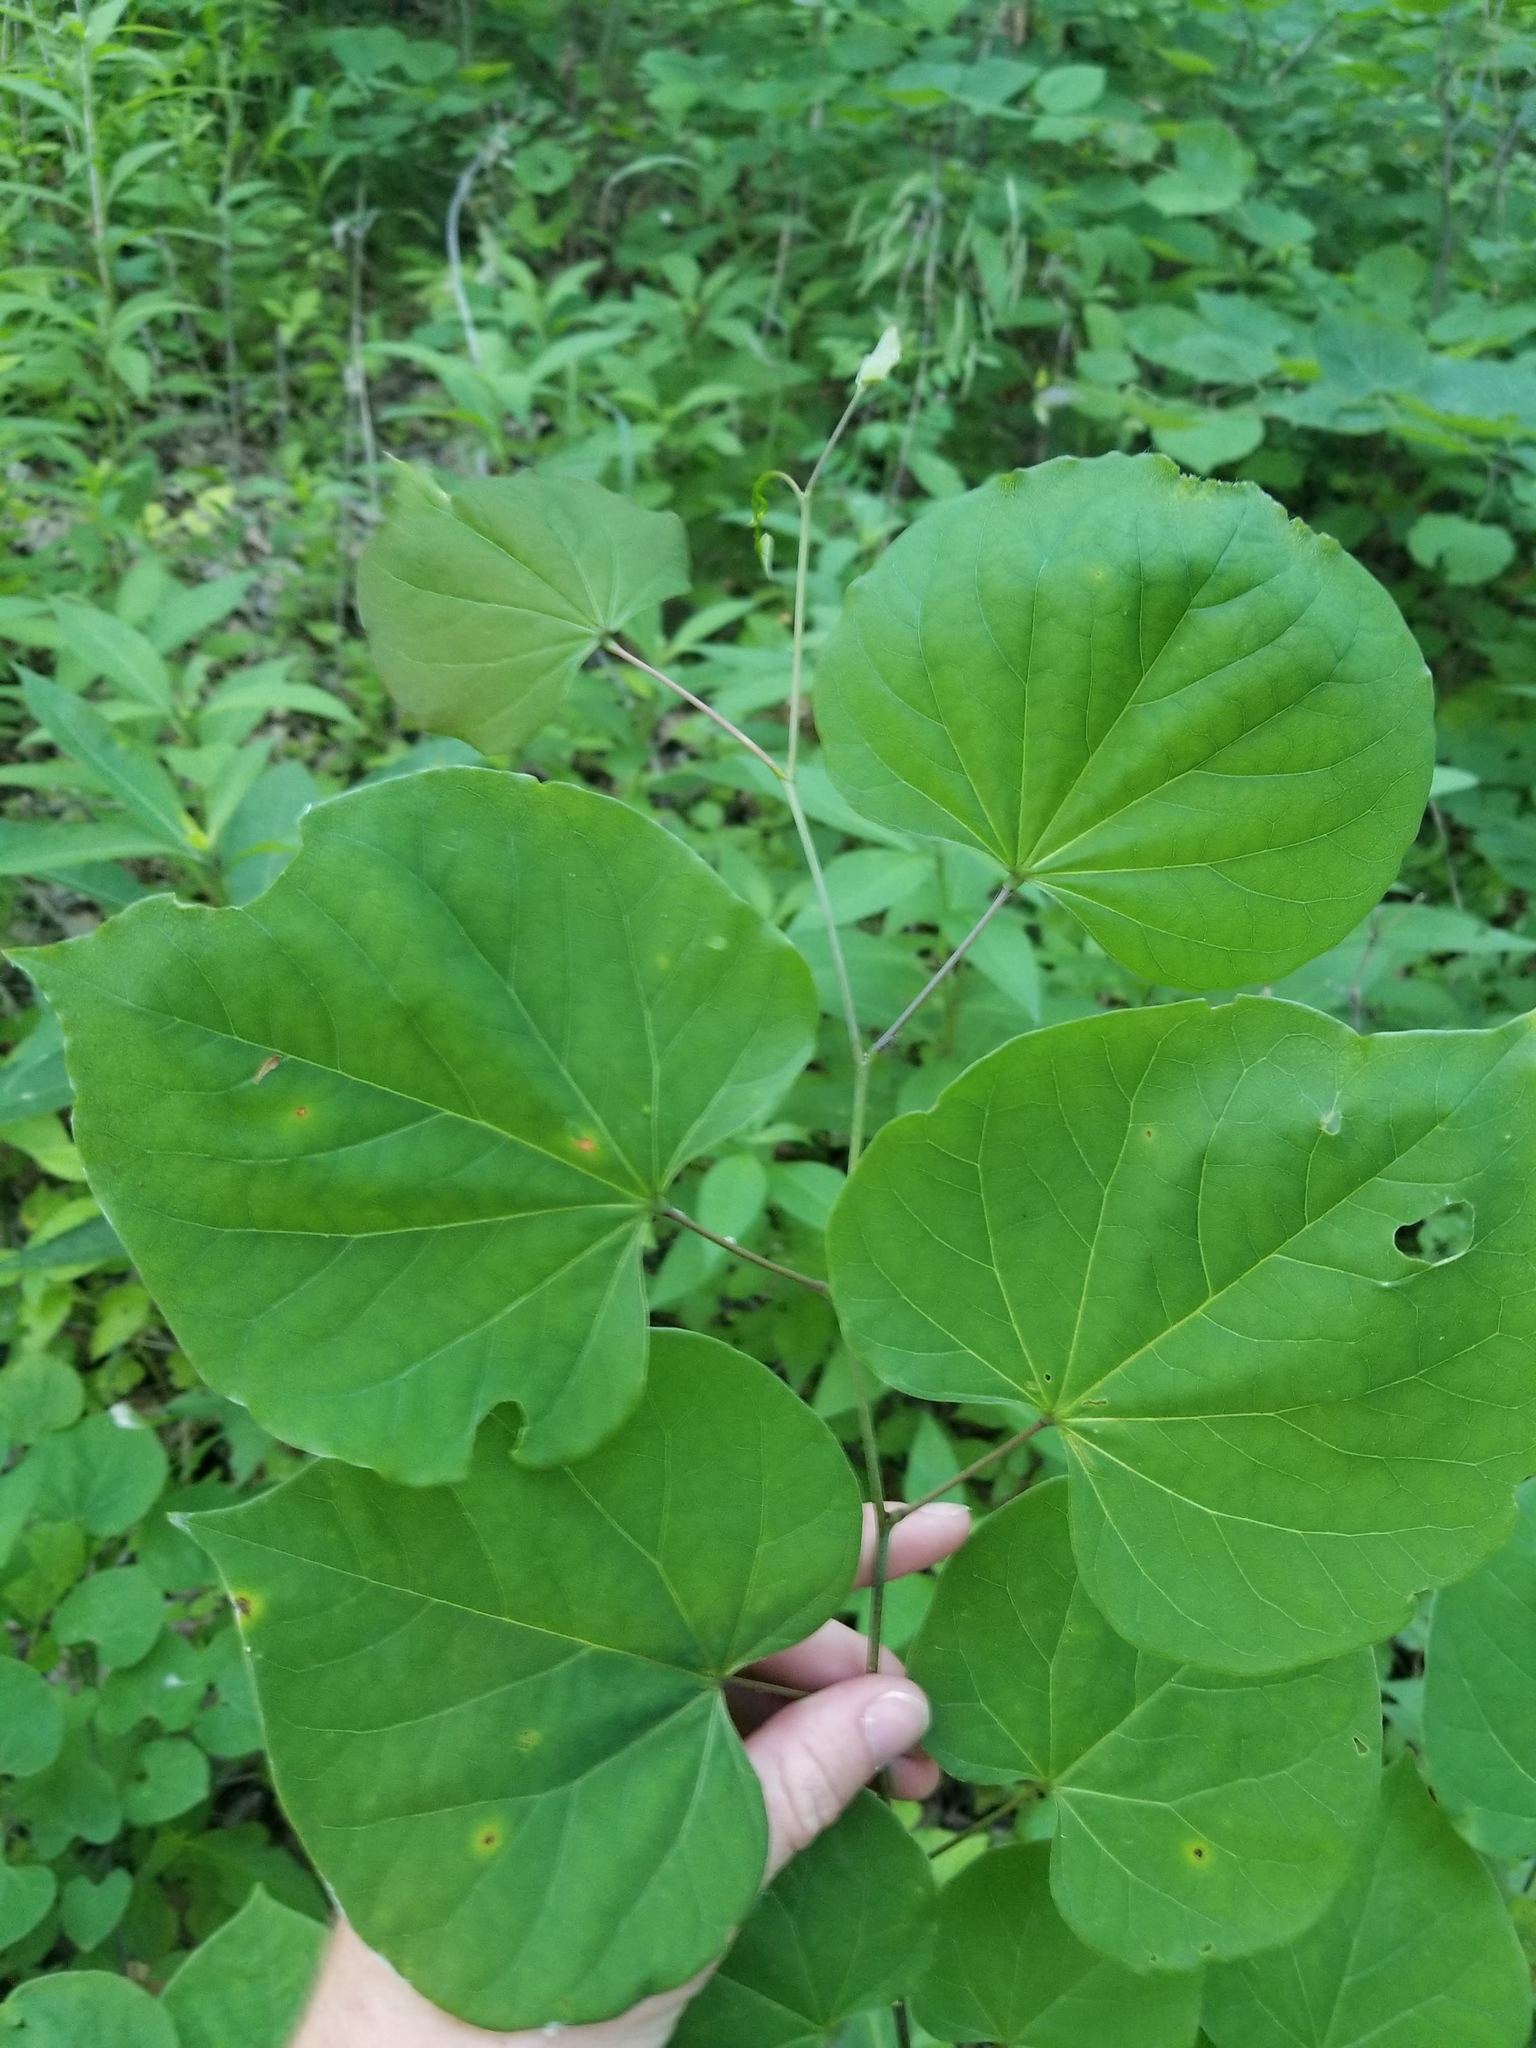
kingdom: Plantae
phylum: Tracheophyta
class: Magnoliopsida
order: Fabales
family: Fabaceae
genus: Cercis
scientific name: Cercis canadensis
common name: Eastern redbud
